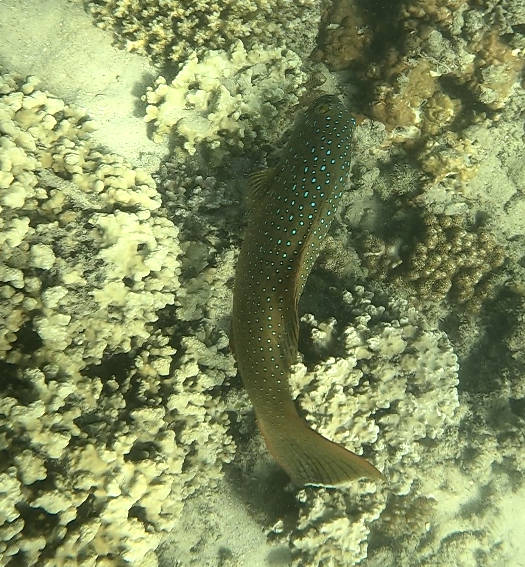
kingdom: Animalia
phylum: Chordata
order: Perciformes
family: Serranidae
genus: Plectropomus
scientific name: Plectropomus maculatus
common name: Spotted coralgrouper
